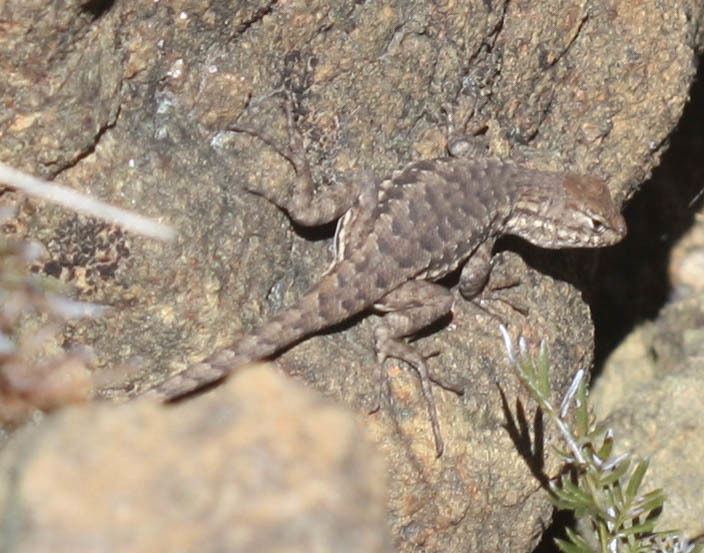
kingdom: Animalia
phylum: Chordata
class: Squamata
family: Phrynosomatidae
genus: Sceloporus
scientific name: Sceloporus graciosus
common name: Sagebrush lizard
